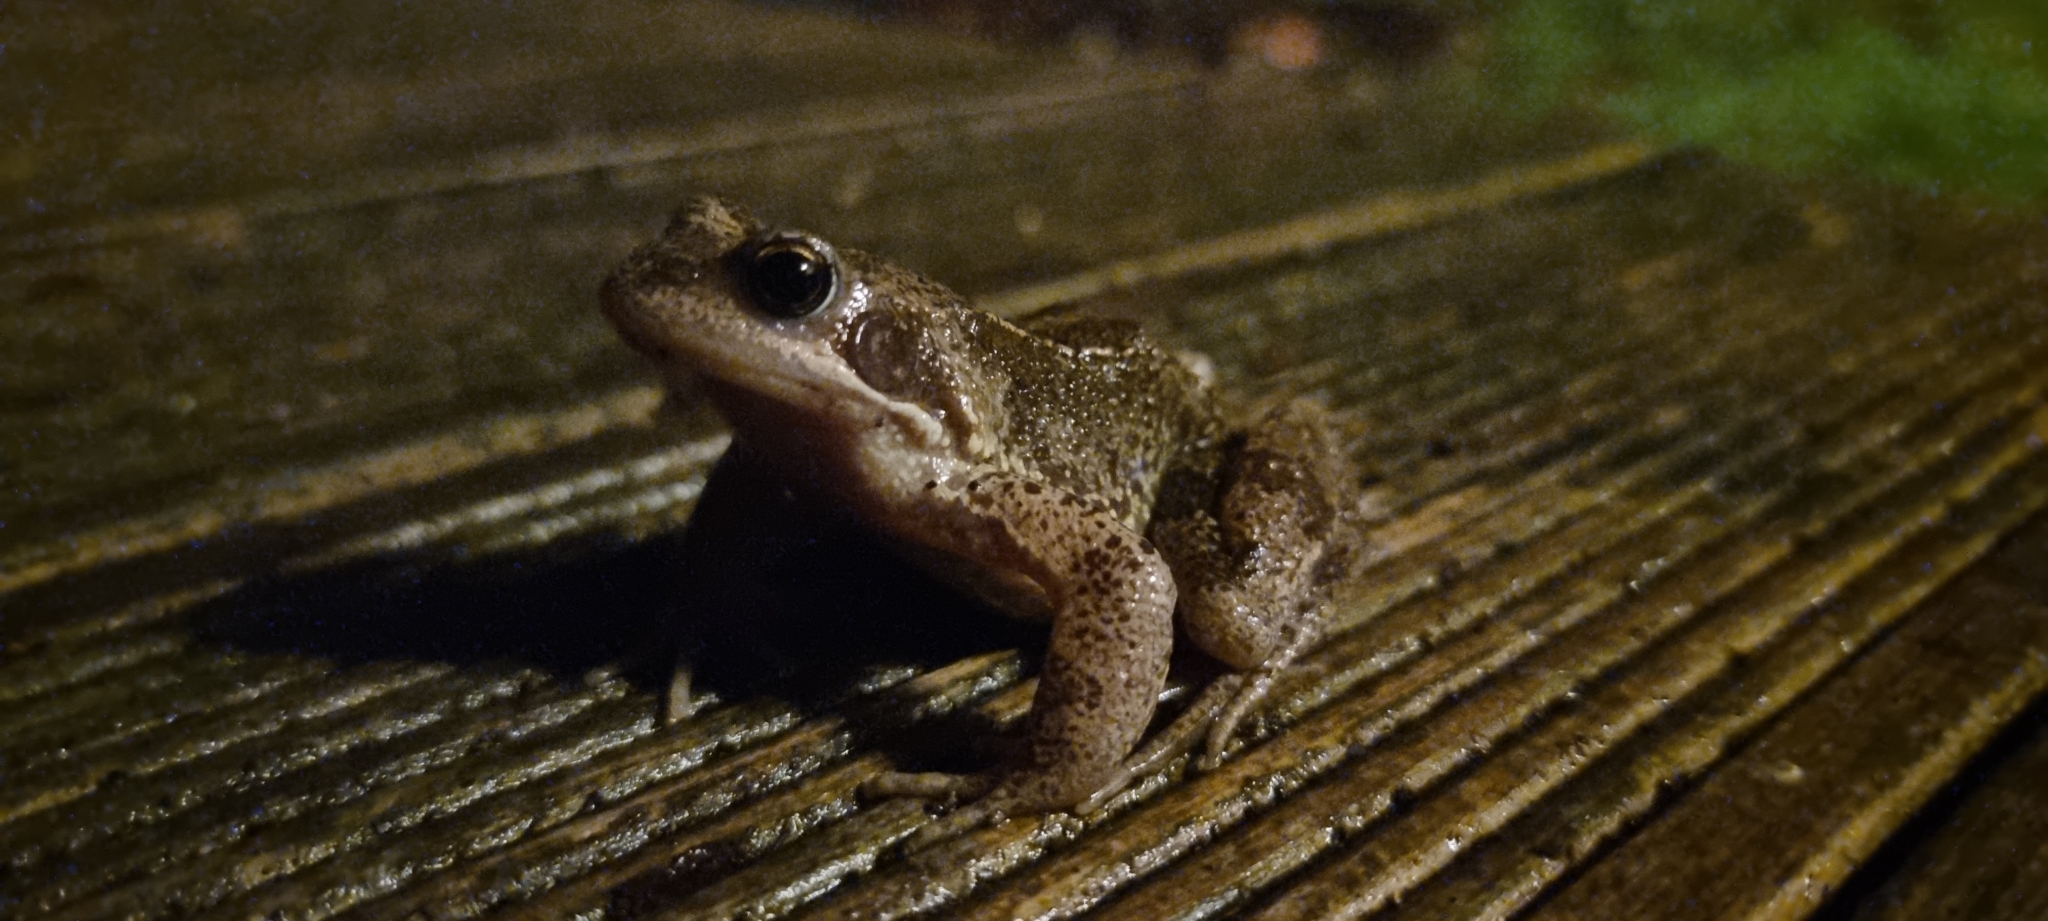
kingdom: Animalia
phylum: Chordata
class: Amphibia
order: Anura
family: Ranidae
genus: Rana
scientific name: Rana temporaria
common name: Common frog
